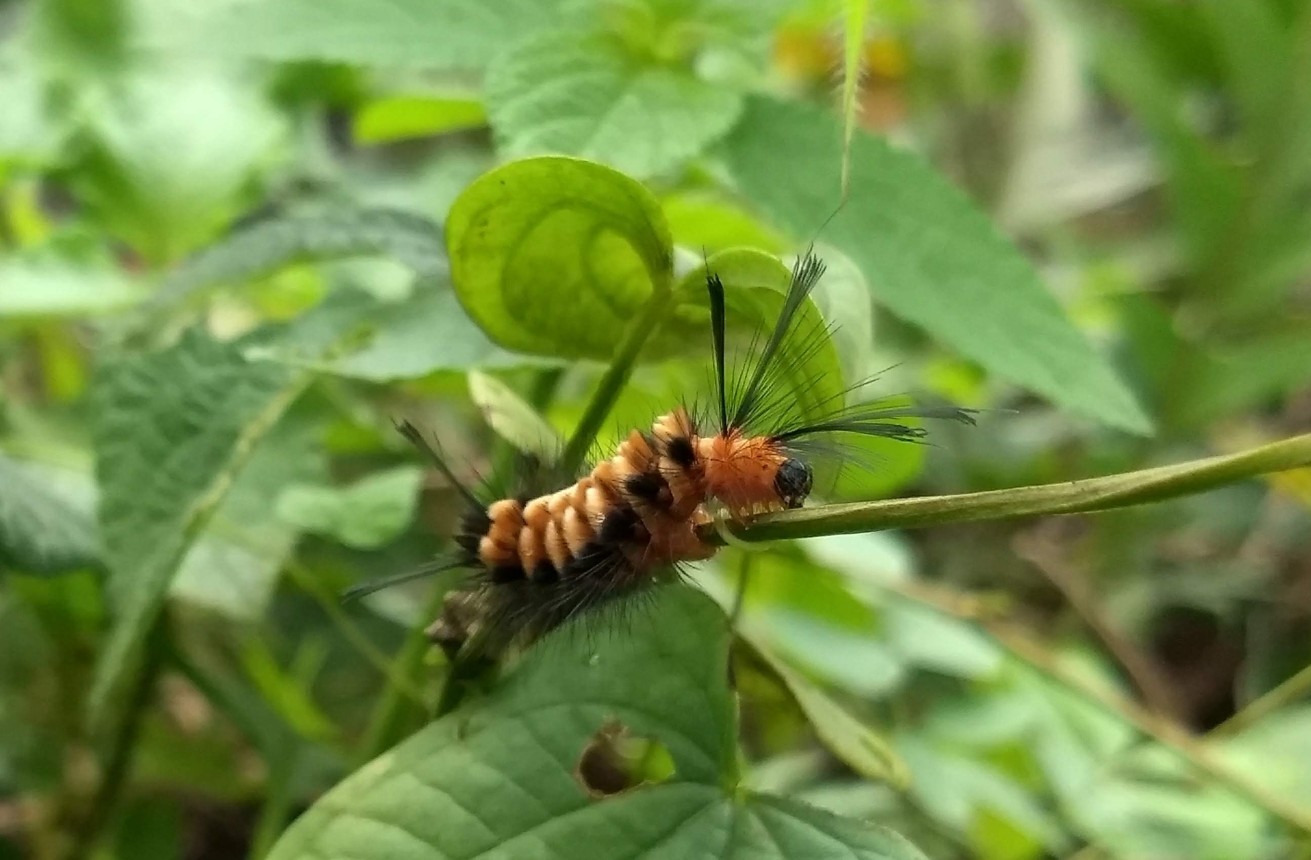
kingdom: Animalia
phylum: Arthropoda
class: Insecta
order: Lepidoptera
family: Erebidae
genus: Euchromia
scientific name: Euchromia polymena
